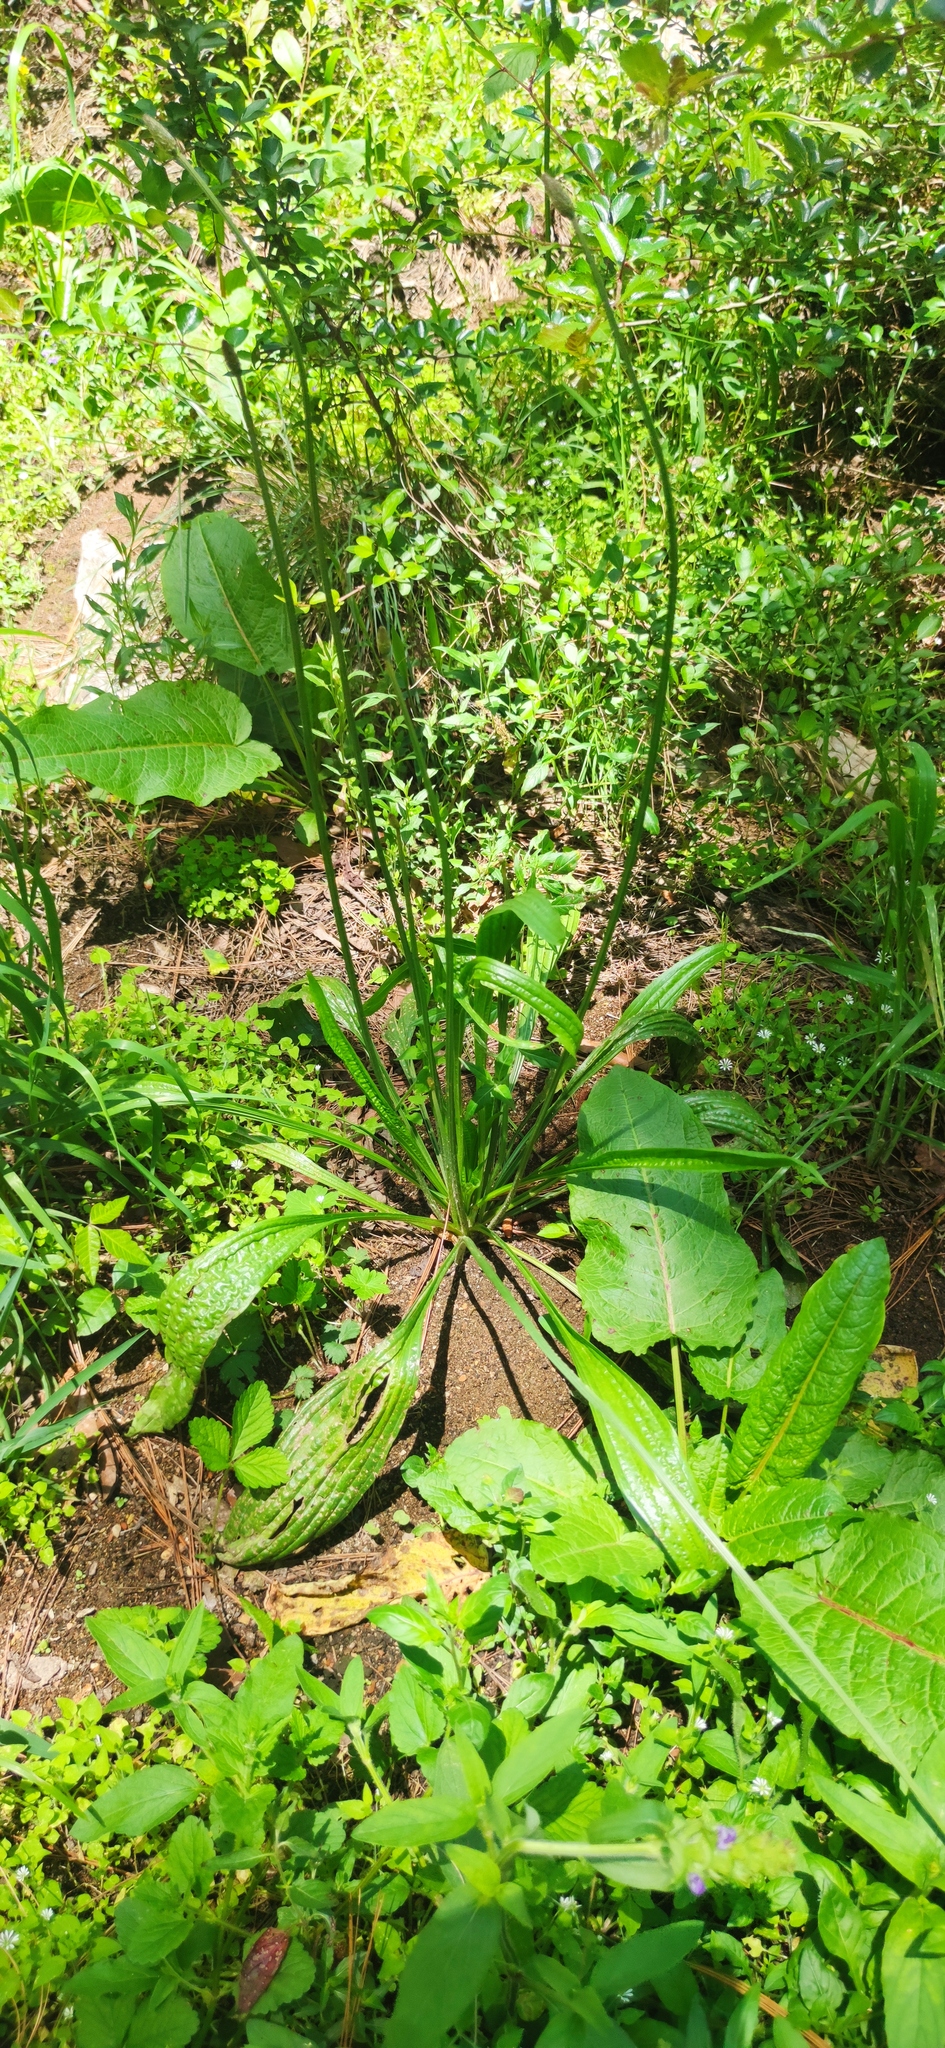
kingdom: Plantae
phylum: Tracheophyta
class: Magnoliopsida
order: Lamiales
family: Plantaginaceae
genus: Plantago
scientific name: Plantago lanceolata
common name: Ribwort plantain
